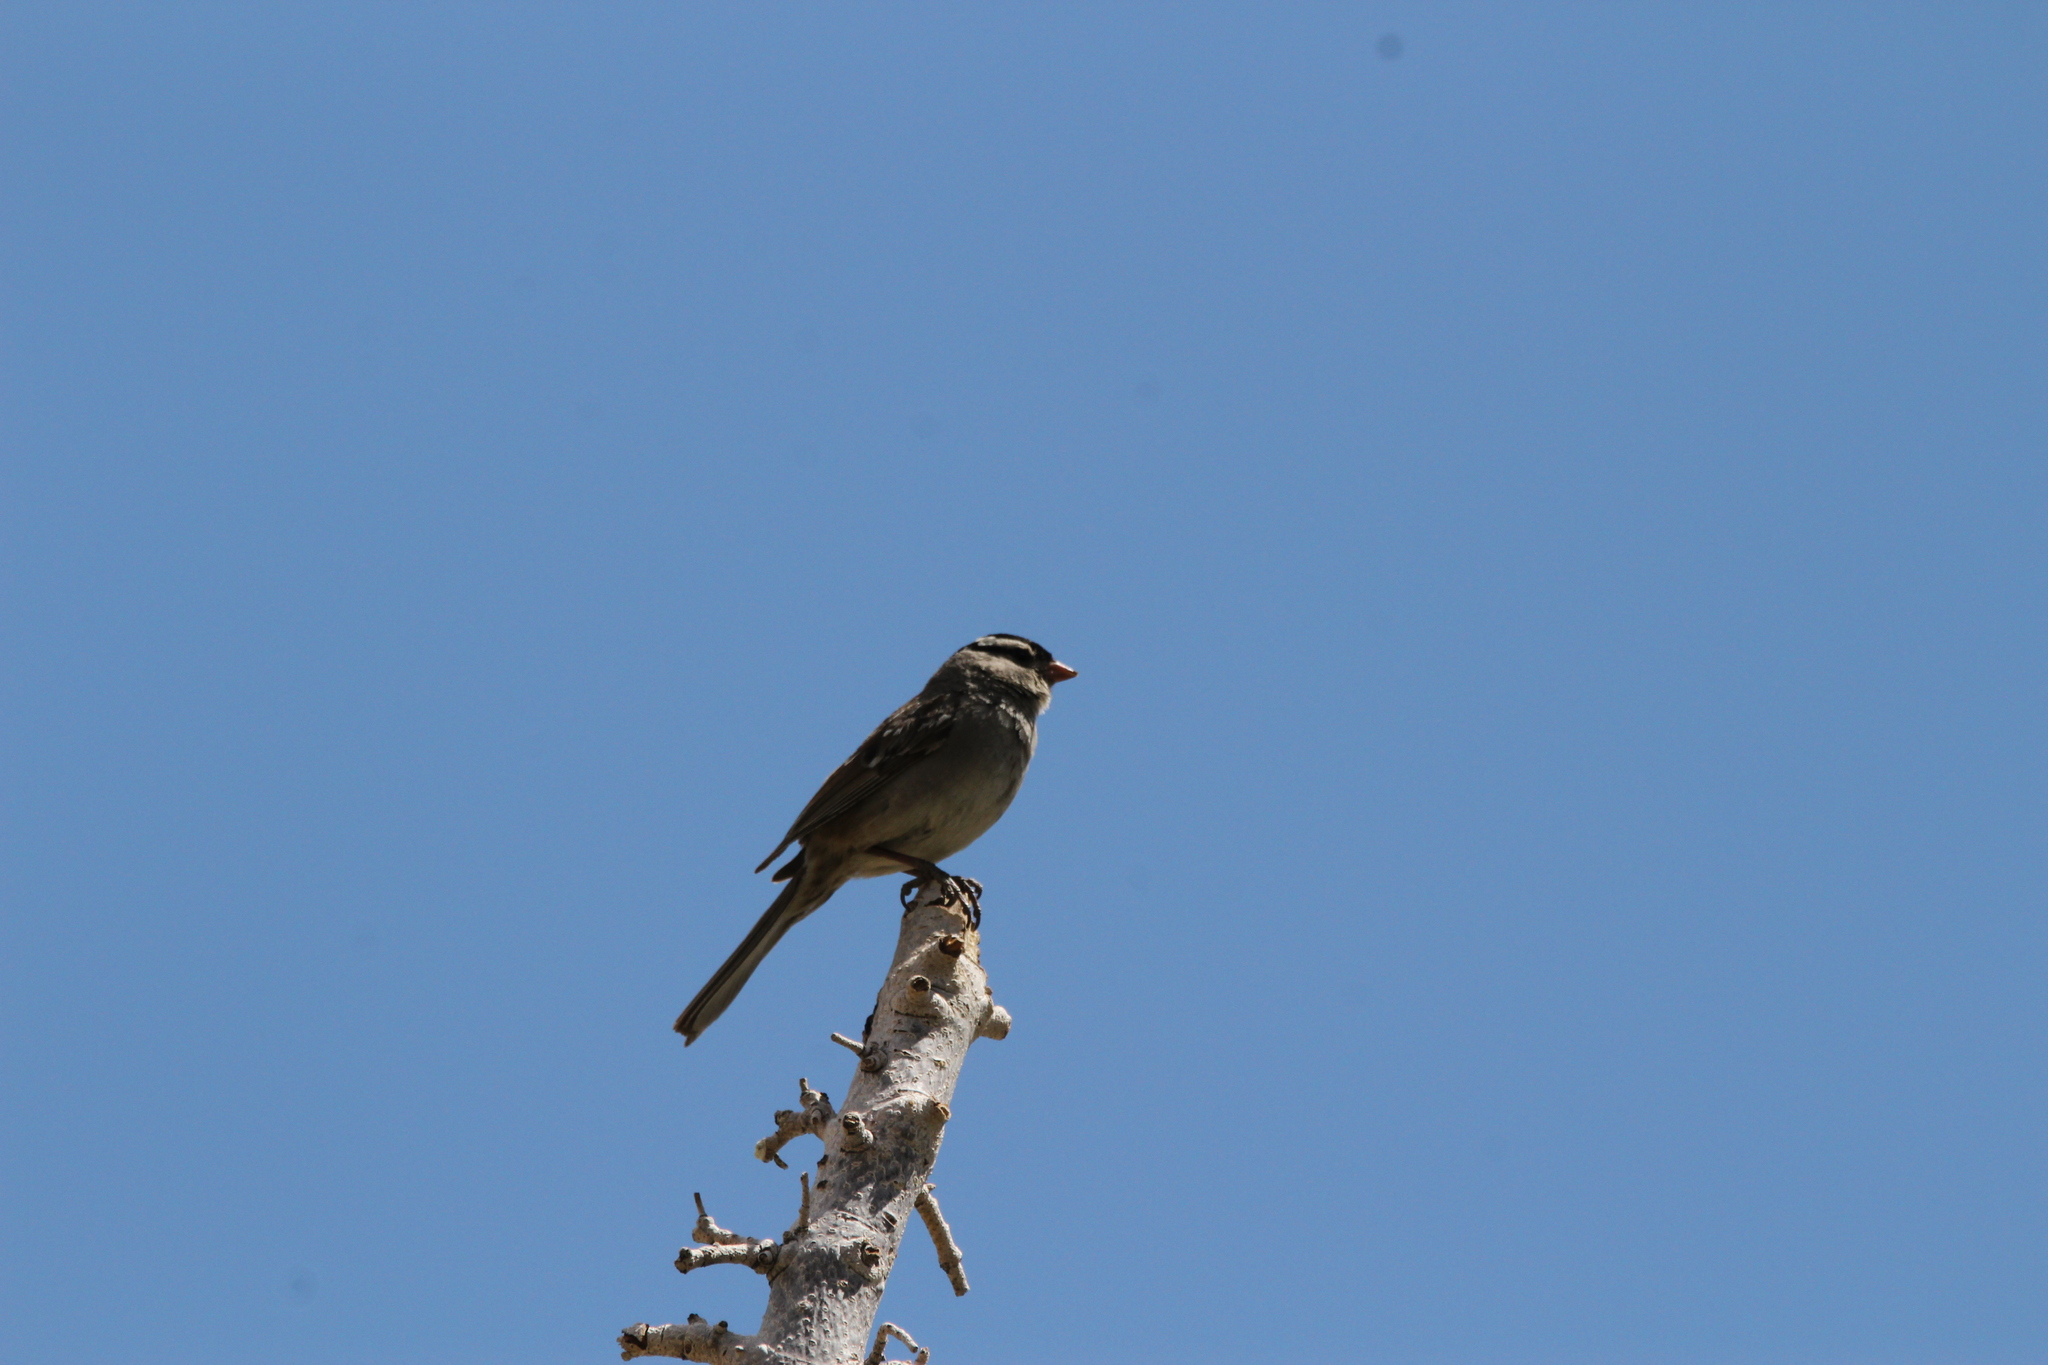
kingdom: Animalia
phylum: Chordata
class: Aves
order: Passeriformes
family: Passerellidae
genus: Zonotrichia
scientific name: Zonotrichia leucophrys
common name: White-crowned sparrow
